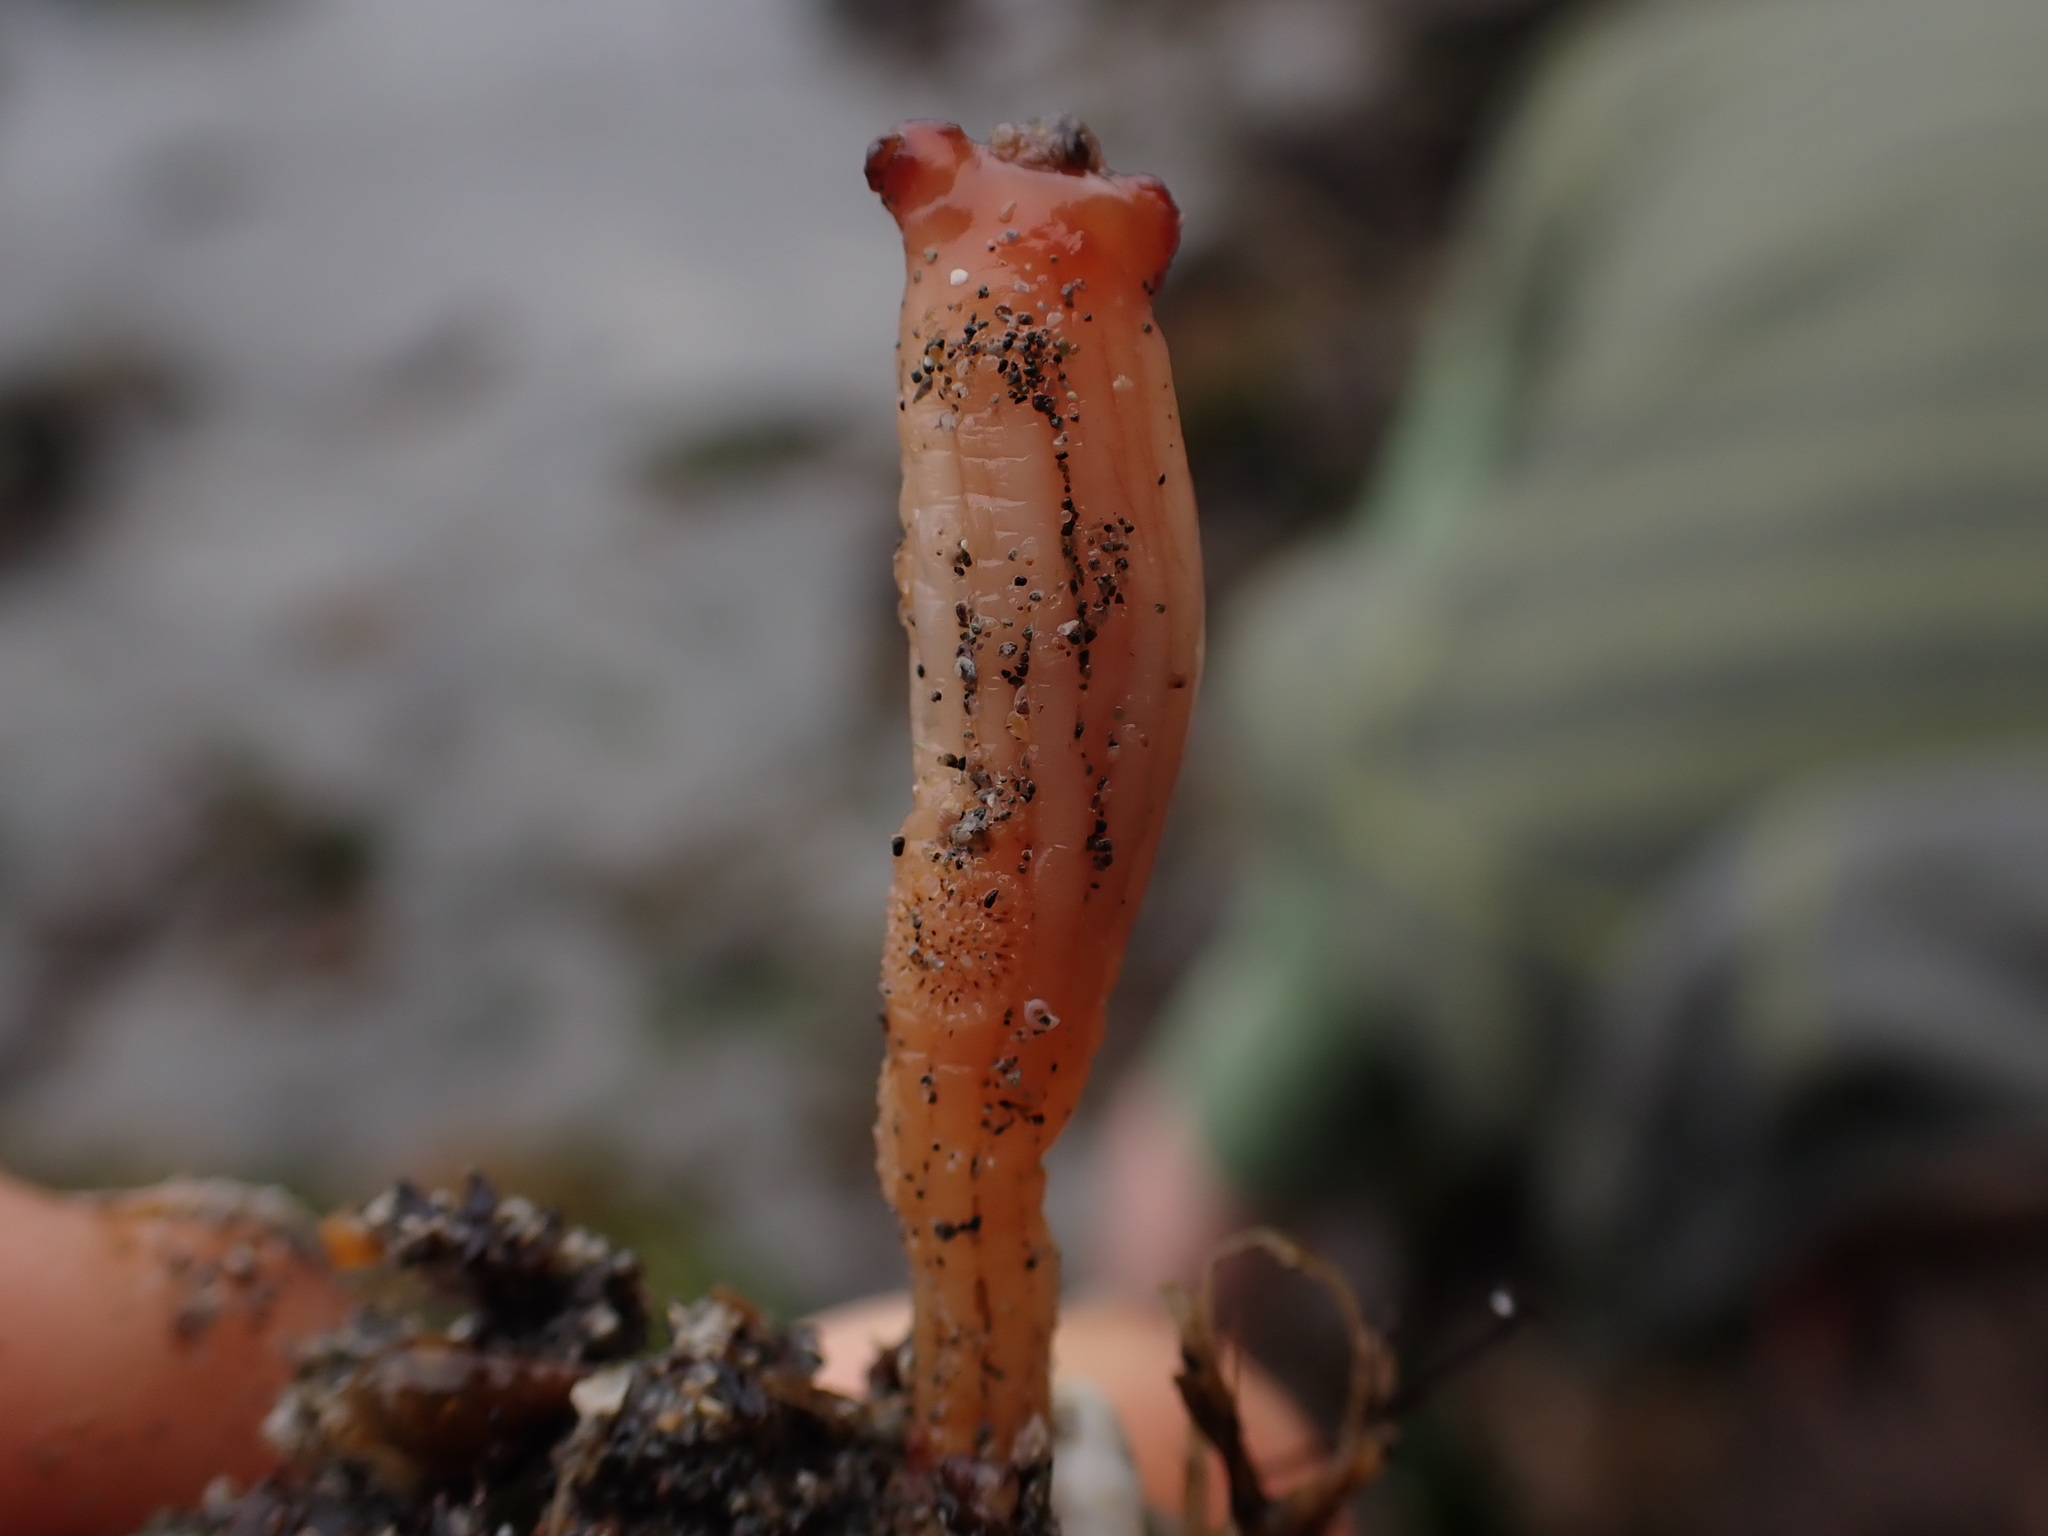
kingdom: Animalia
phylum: Chordata
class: Ascidiacea
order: Stolidobranchia
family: Styelidae
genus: Styela
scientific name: Styela montereyensis
